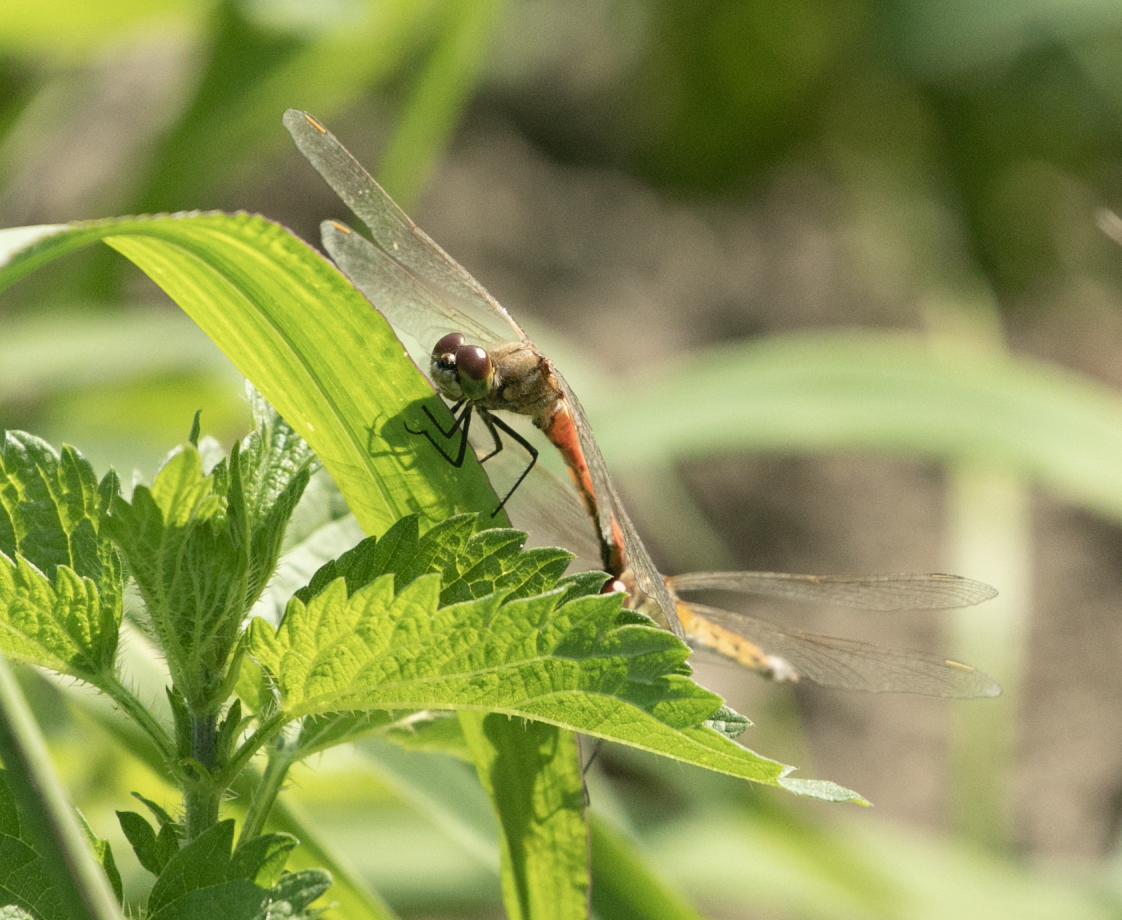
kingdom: Animalia
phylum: Arthropoda
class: Insecta
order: Odonata
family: Libellulidae
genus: Sympetrum
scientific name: Sympetrum depressiusculum
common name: Spotted darter
